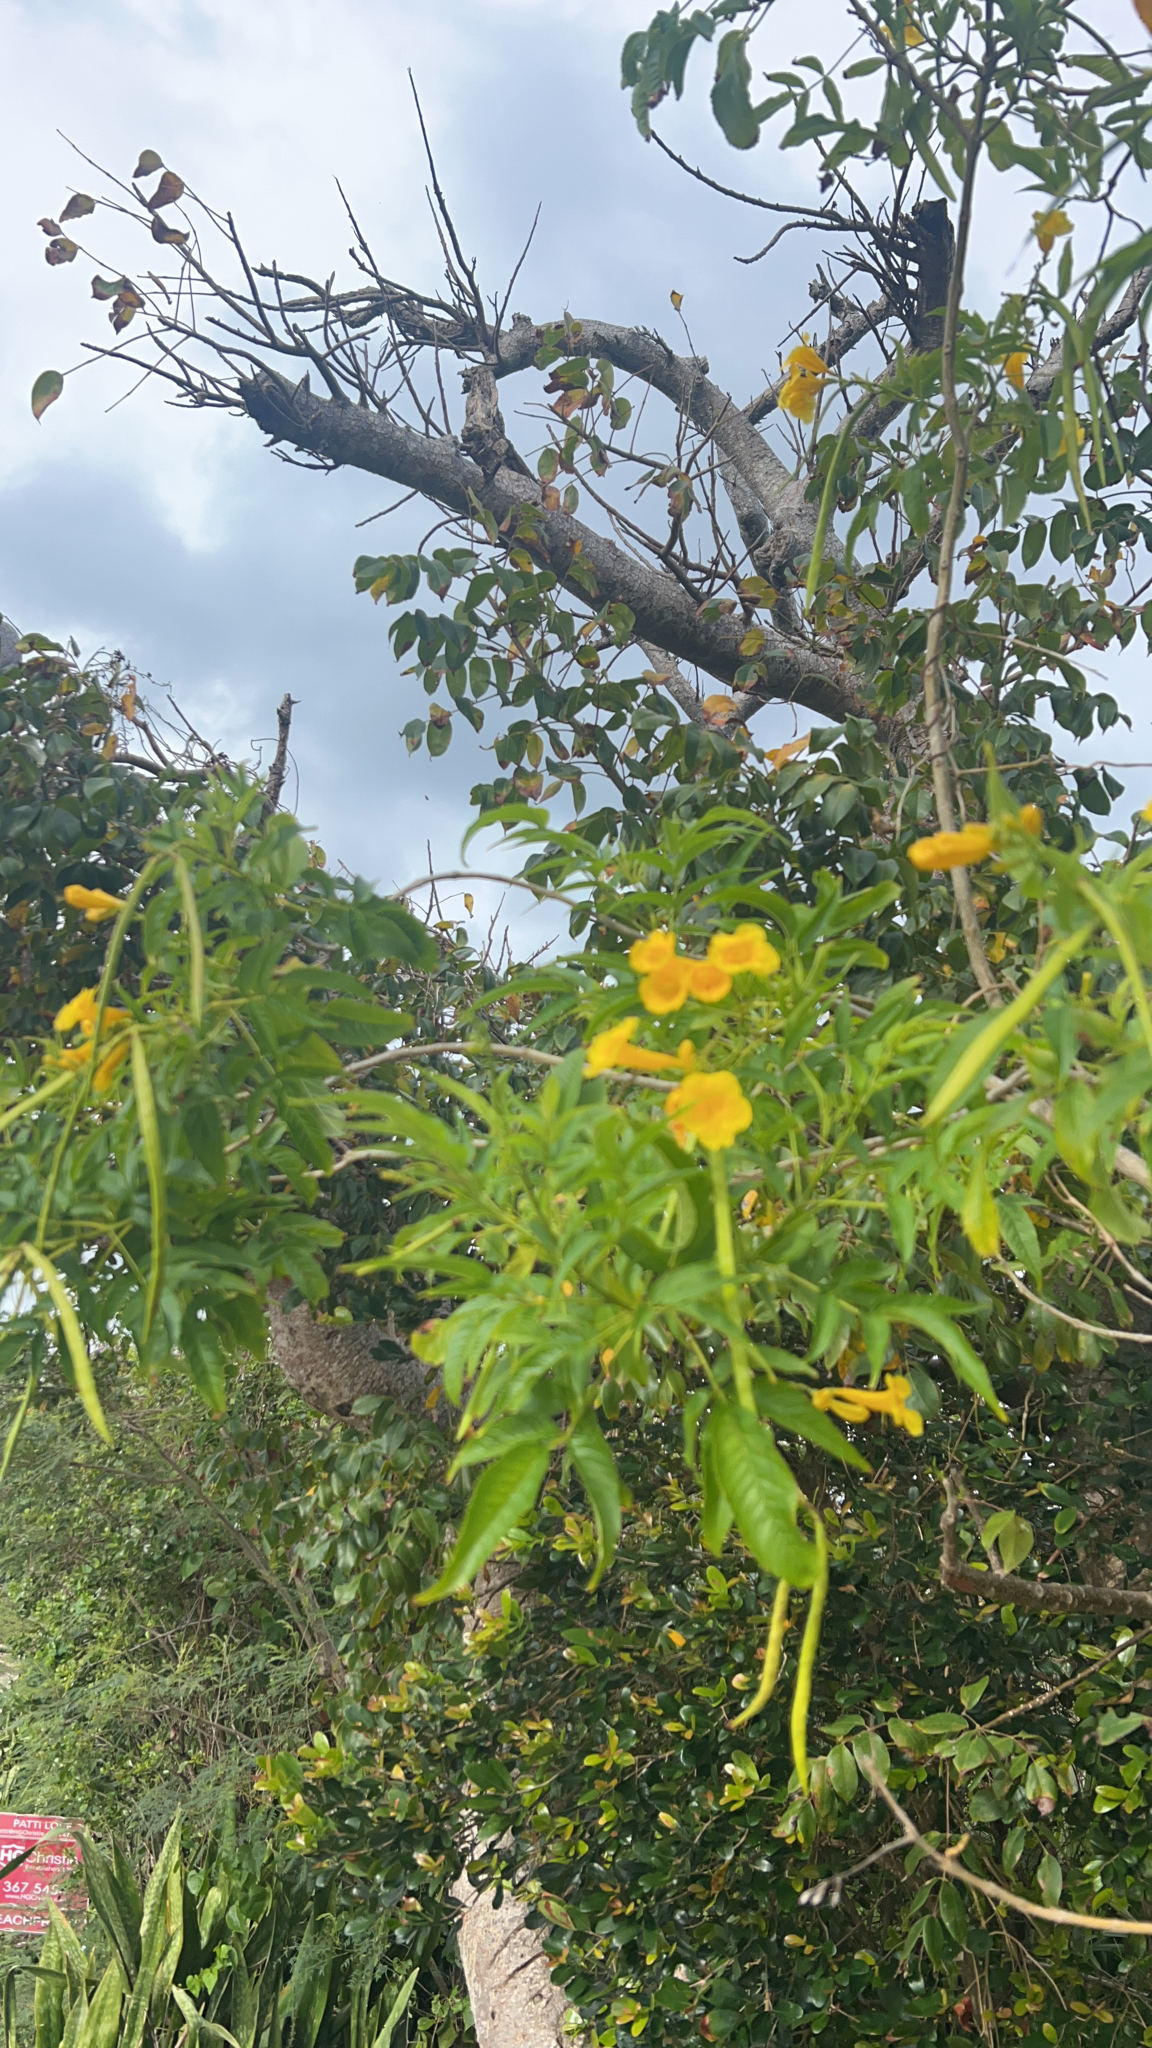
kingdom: Plantae
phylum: Tracheophyta
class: Magnoliopsida
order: Lamiales
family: Bignoniaceae
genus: Tecoma
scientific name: Tecoma stans
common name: Yellow trumpetbush
